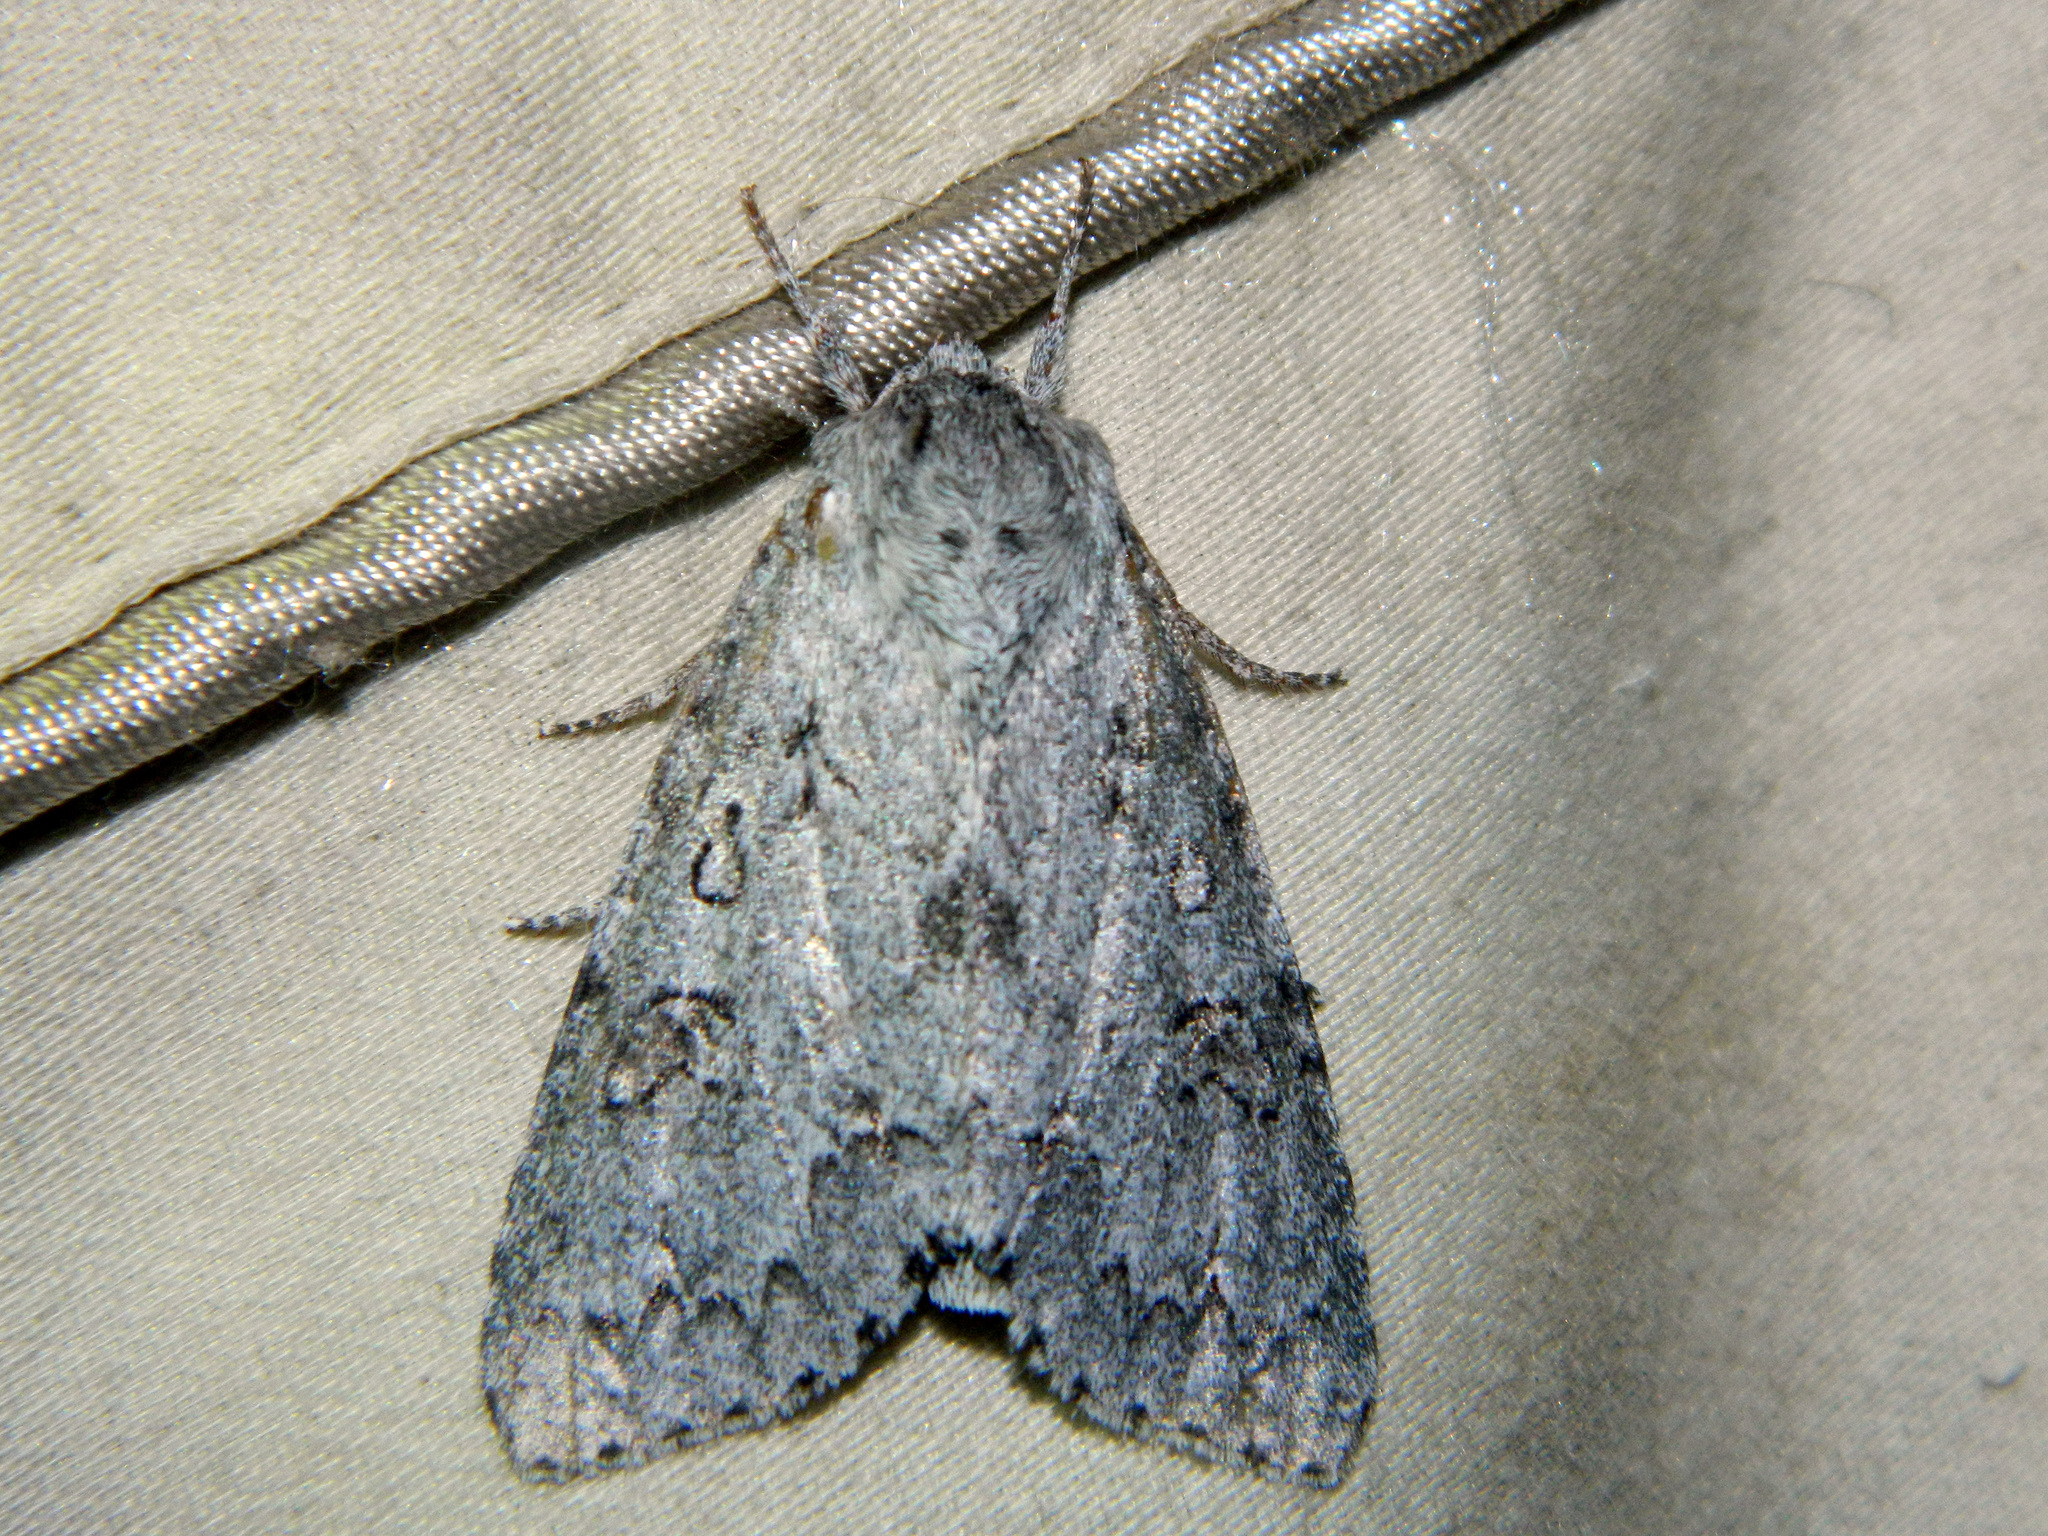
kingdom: Animalia
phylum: Arthropoda
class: Insecta
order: Lepidoptera
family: Noctuidae
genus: Acronicta
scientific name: Acronicta insita
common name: Large gray dagger
